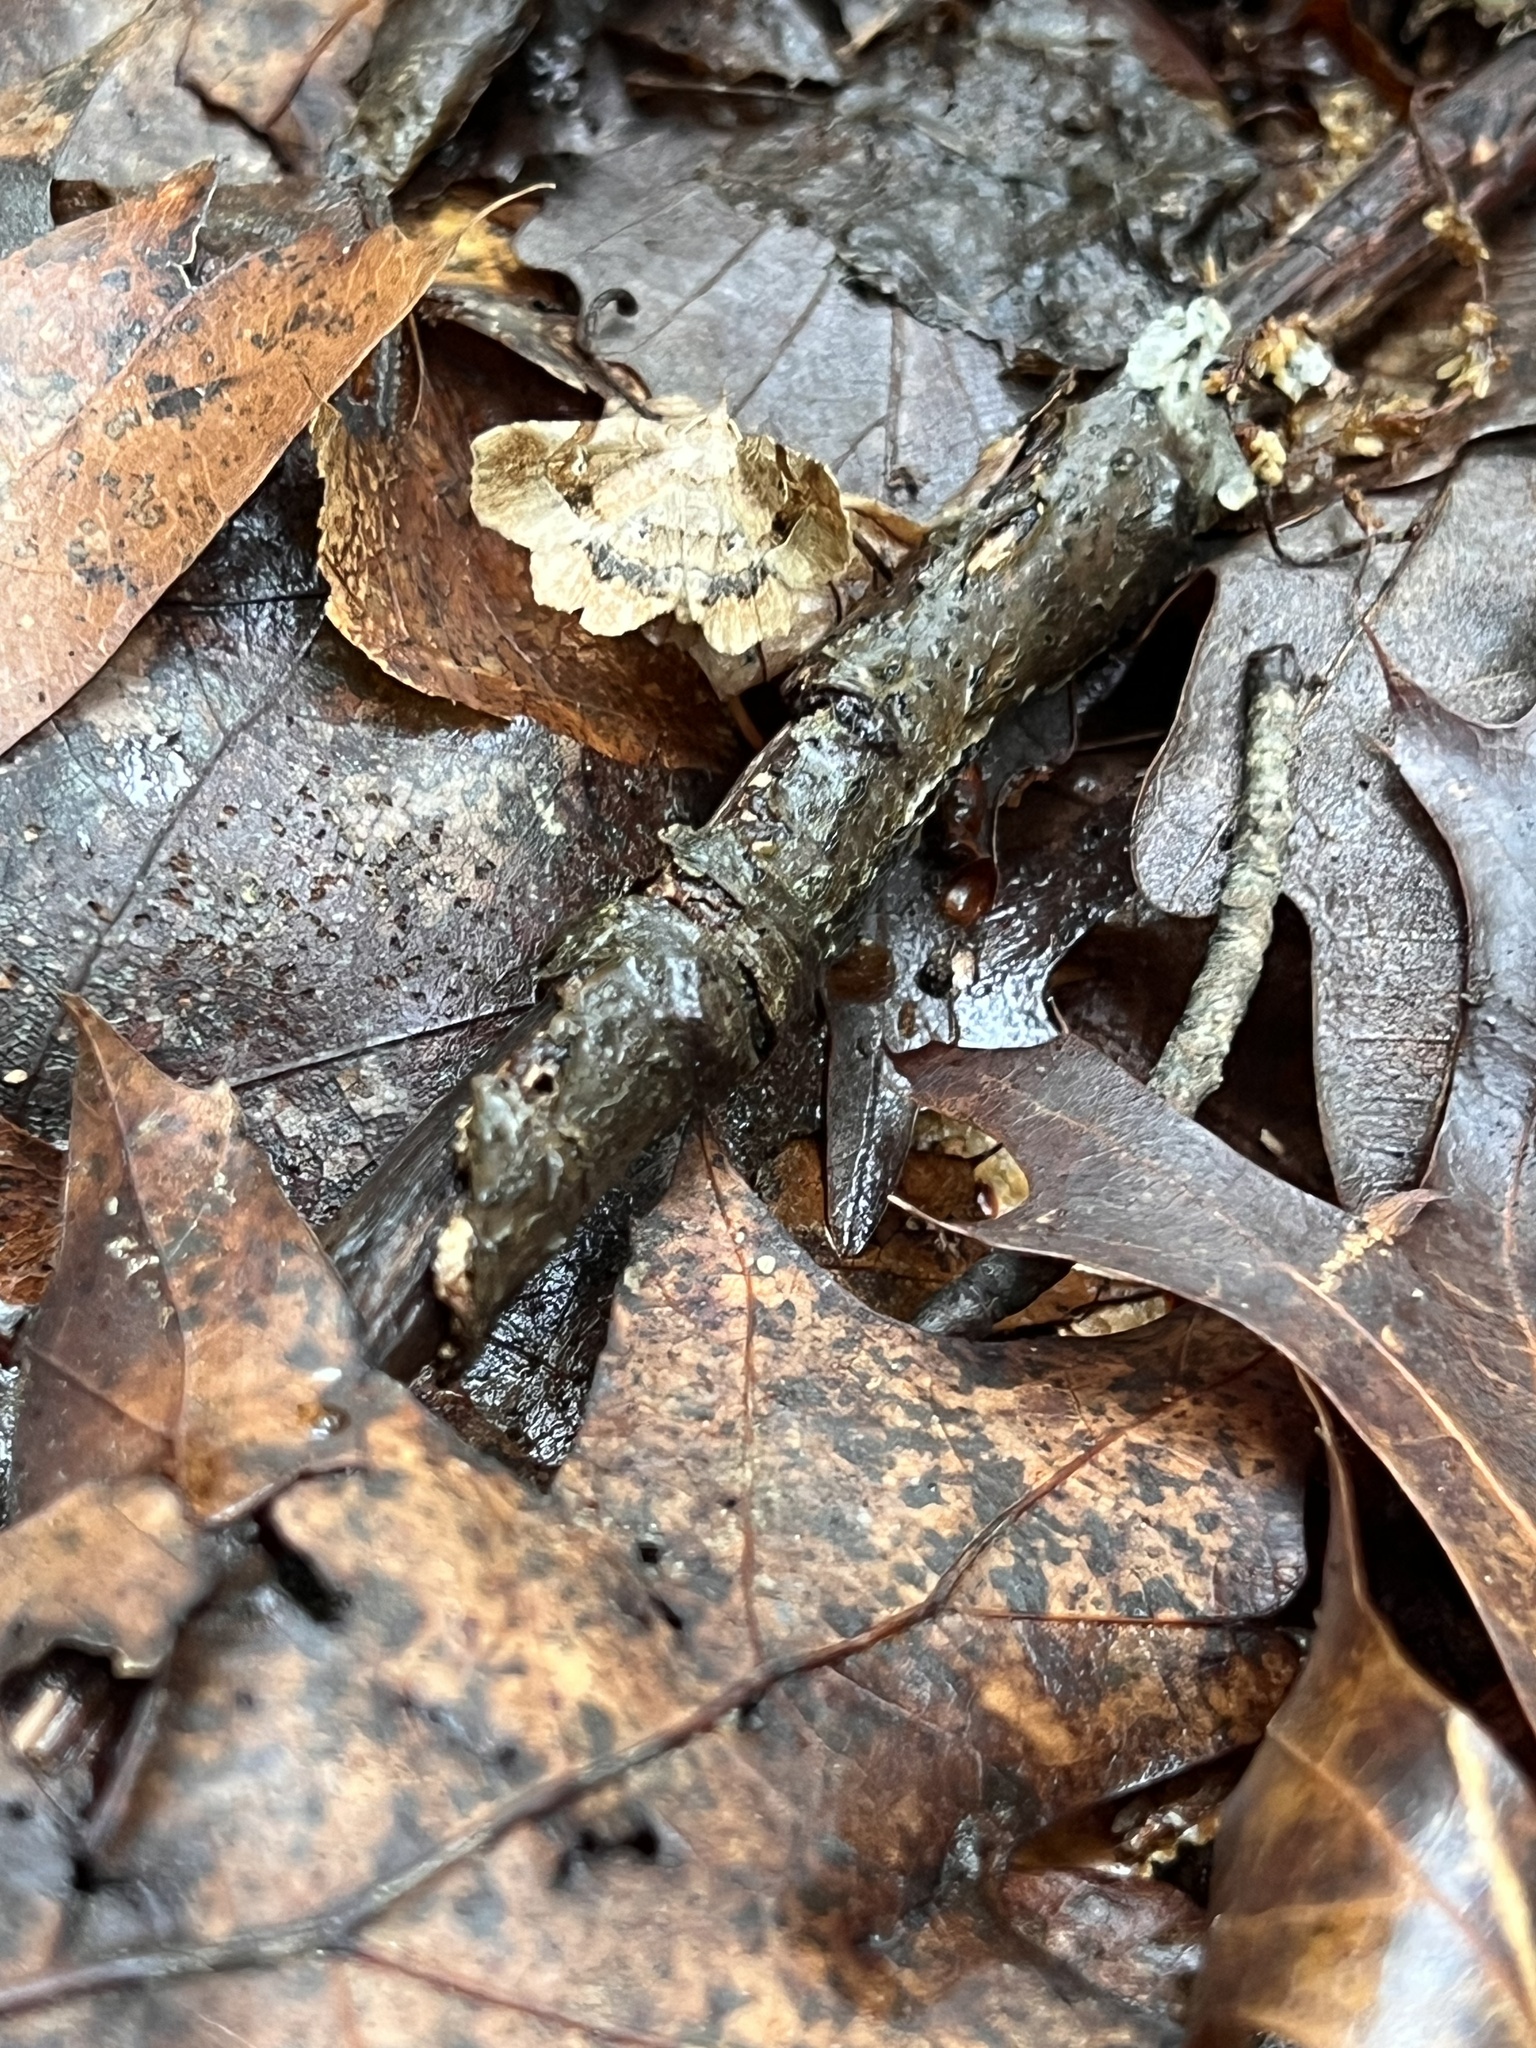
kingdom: Animalia
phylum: Arthropoda
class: Insecta
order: Lepidoptera
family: Erebidae
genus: Pangrapta
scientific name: Pangrapta decoralis
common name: Decorated owlet
